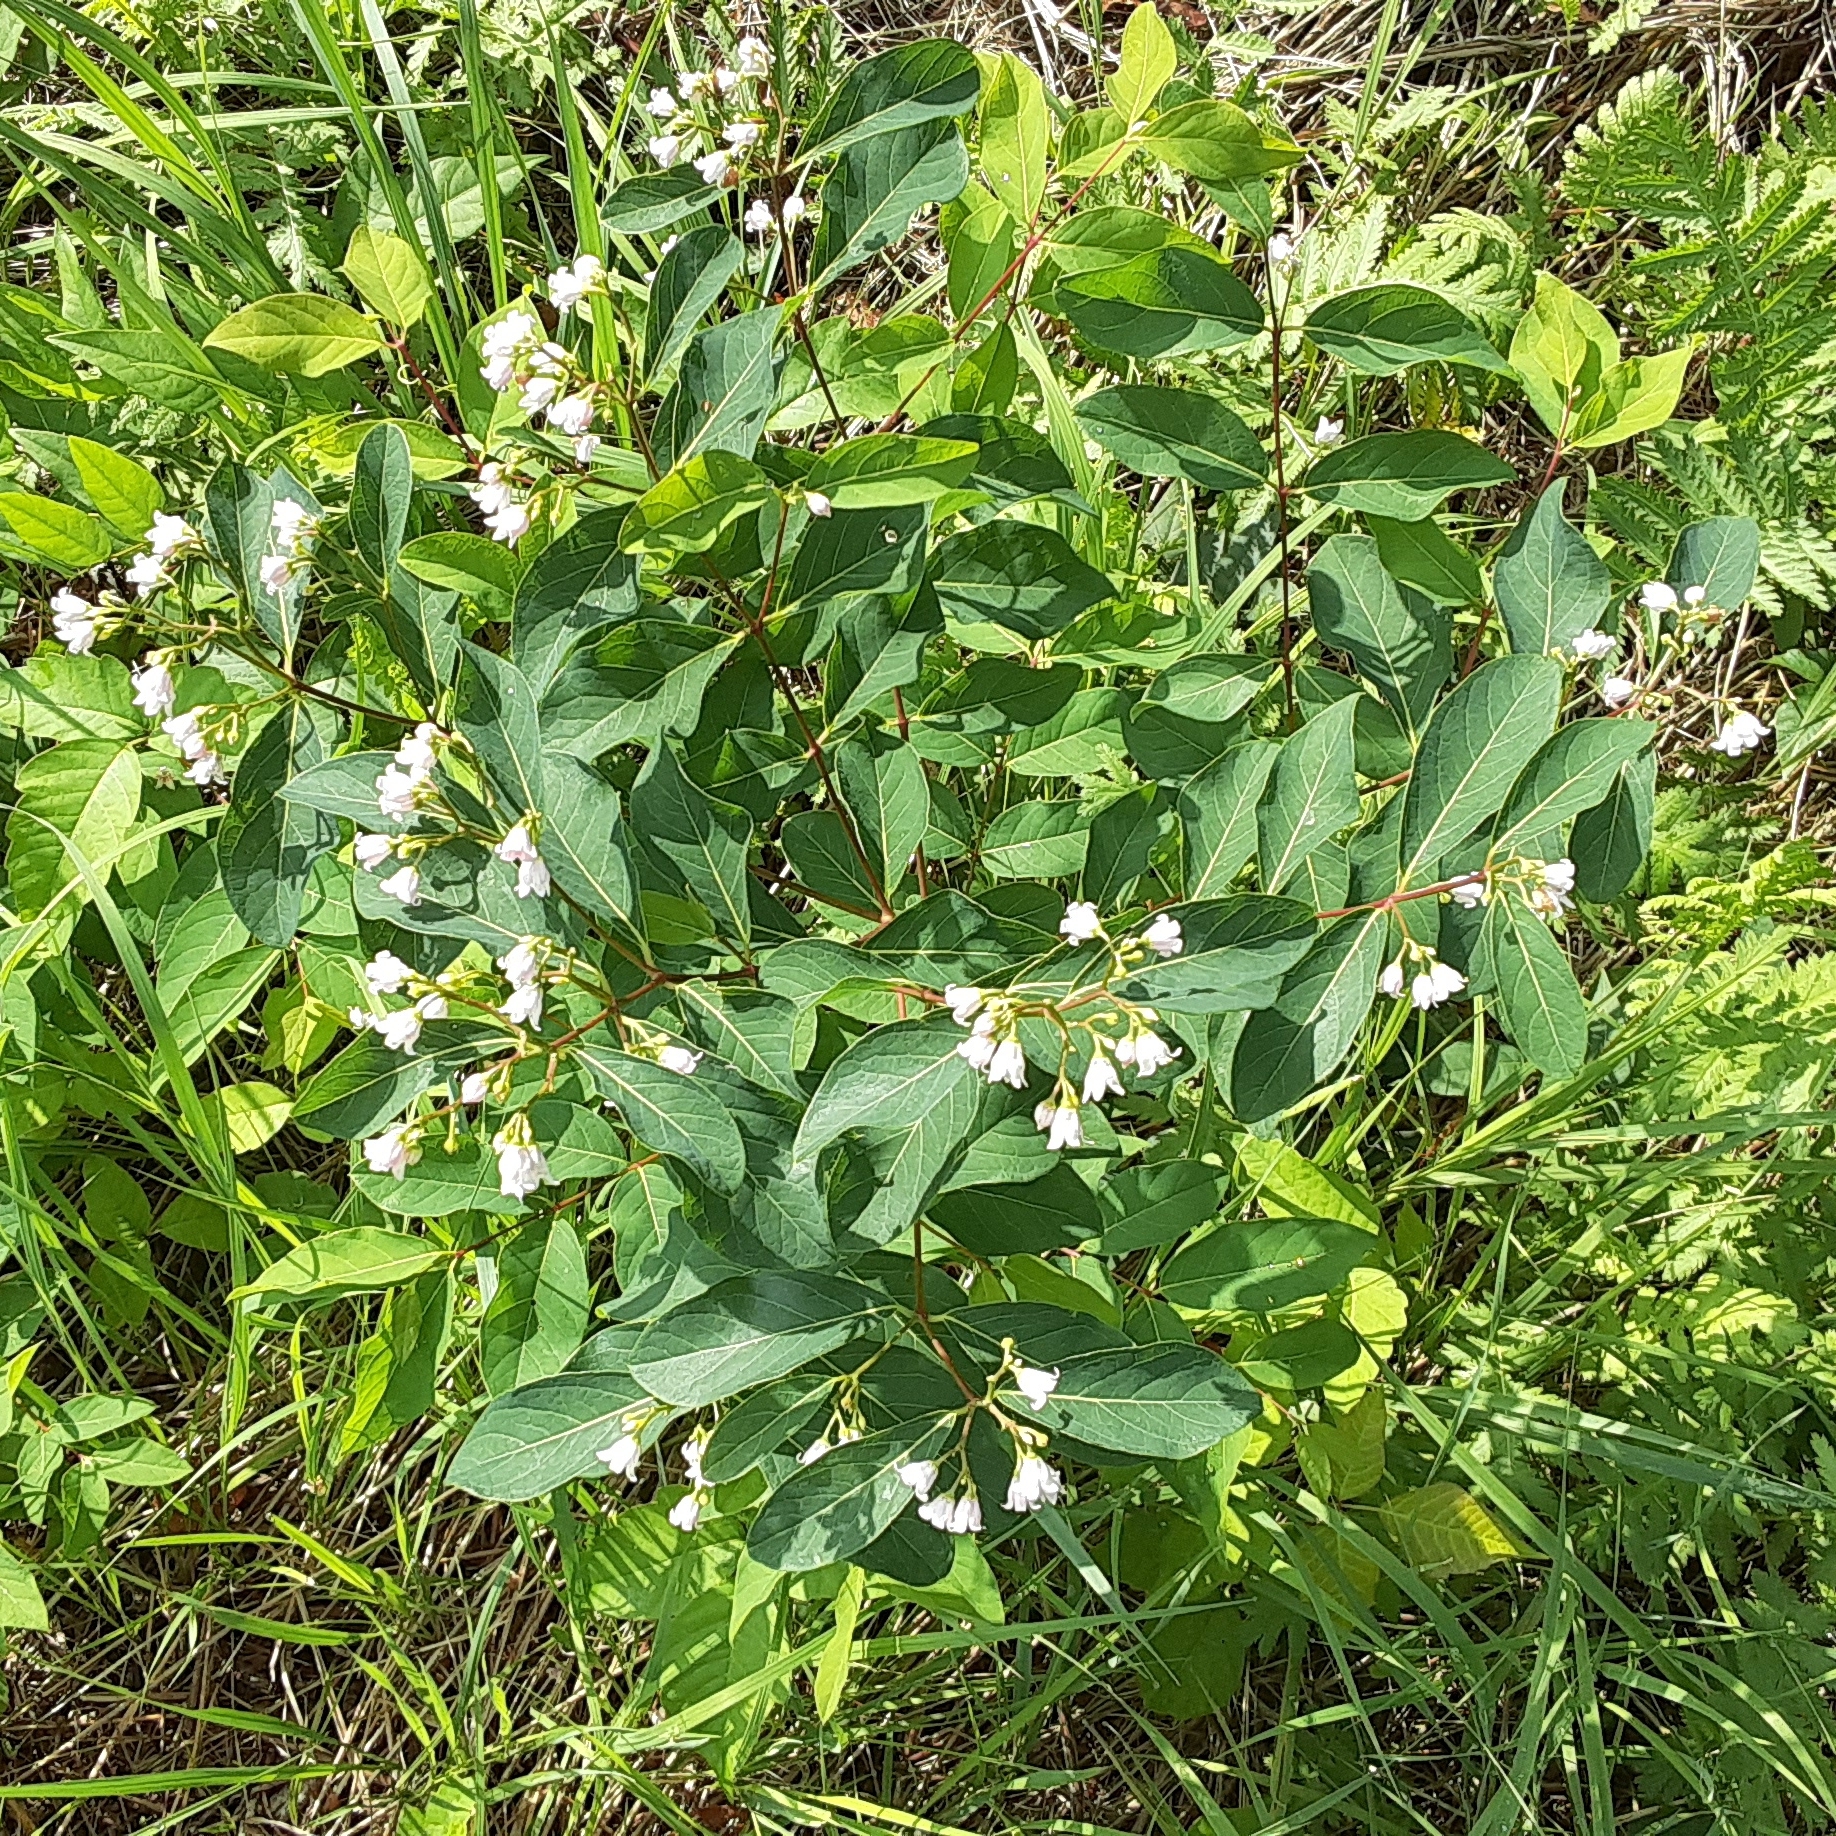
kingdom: Plantae
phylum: Tracheophyta
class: Magnoliopsida
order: Gentianales
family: Apocynaceae
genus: Apocynum
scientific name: Apocynum androsaemifolium
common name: Spreading dogbane
